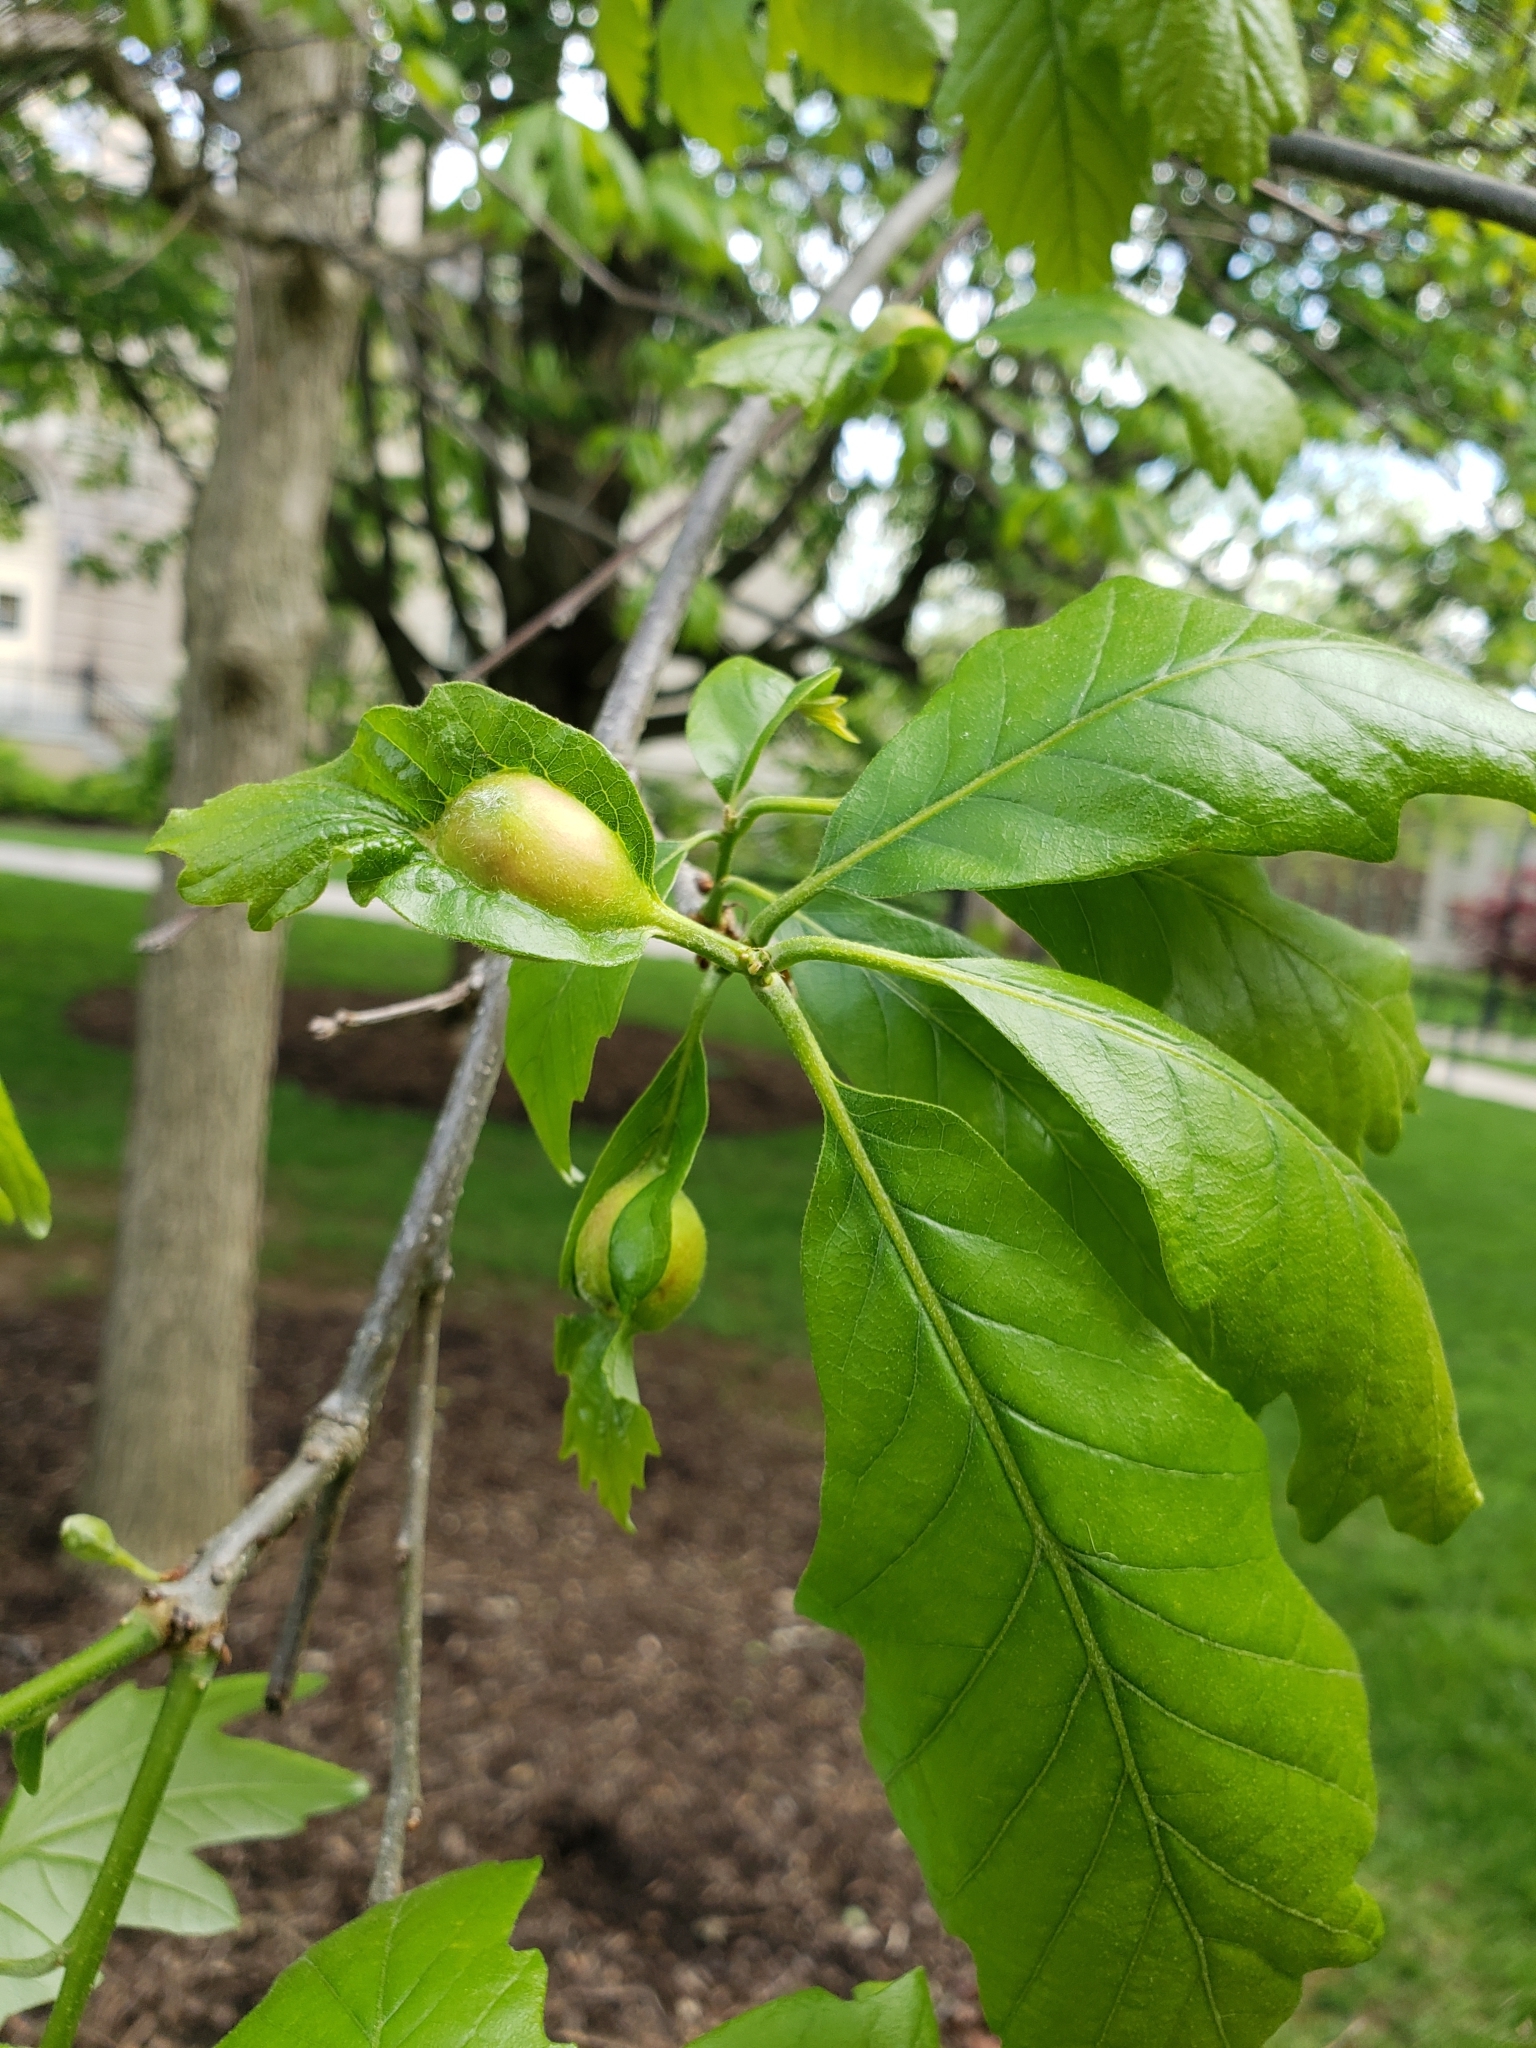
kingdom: Animalia
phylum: Arthropoda
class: Insecta
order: Hymenoptera
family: Cynipidae
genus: Andricus
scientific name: Andricus
